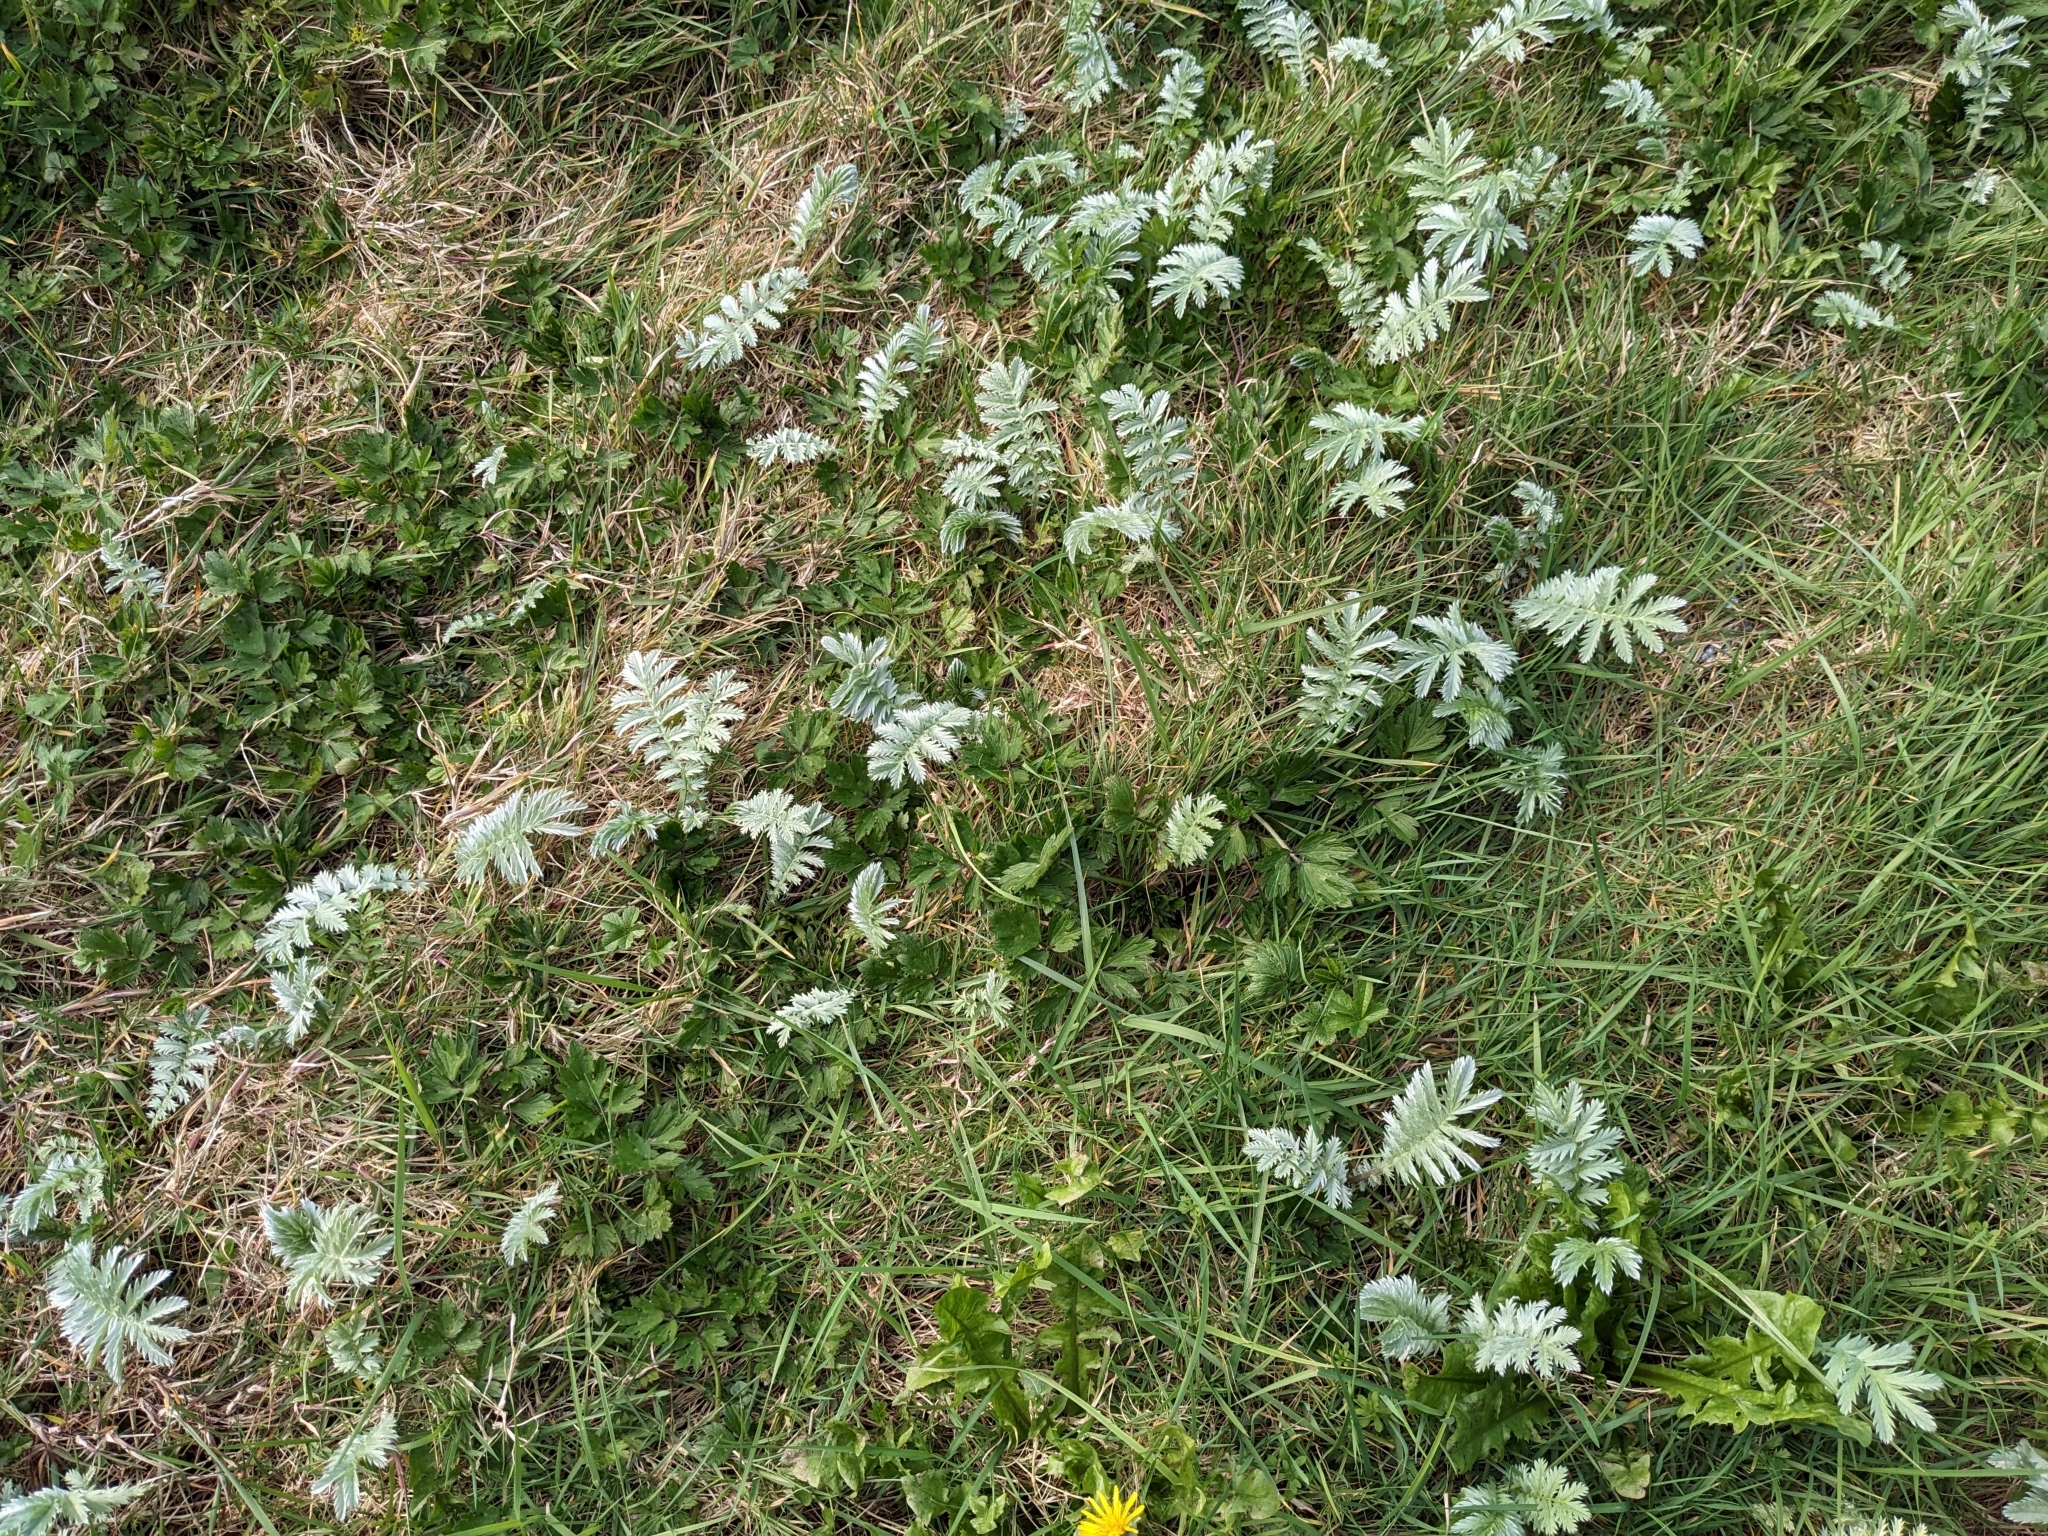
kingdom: Plantae
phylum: Tracheophyta
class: Magnoliopsida
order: Rosales
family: Rosaceae
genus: Argentina
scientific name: Argentina anserina
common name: Common silverweed
